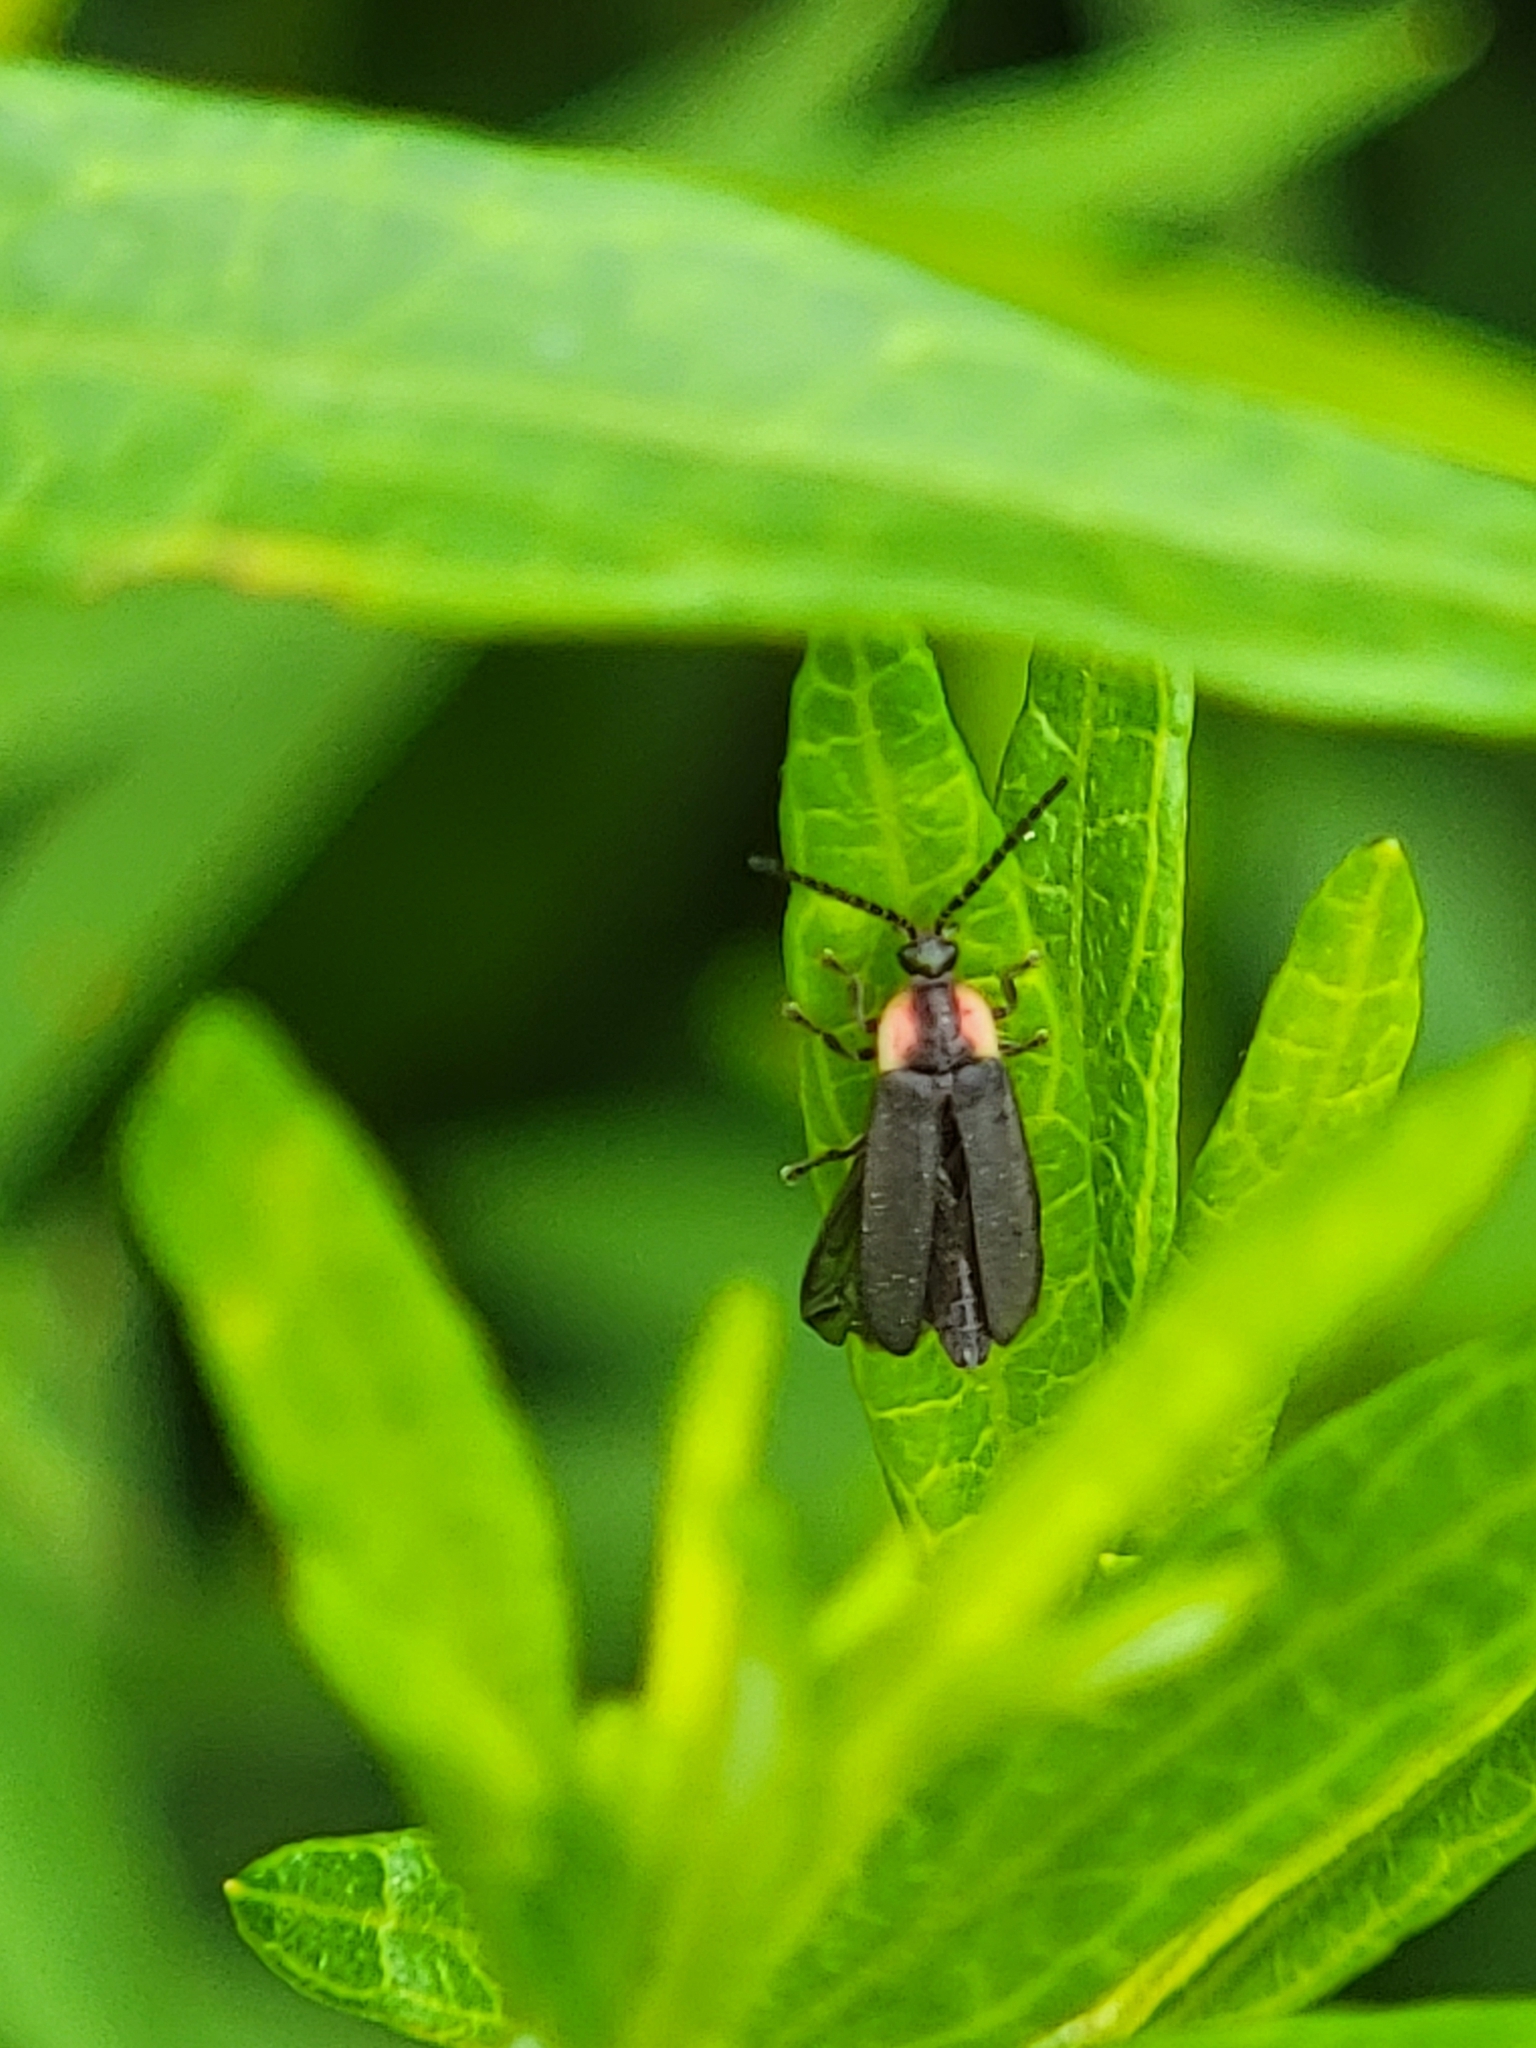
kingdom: Animalia
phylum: Arthropoda
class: Insecta
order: Coleoptera
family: Lampyridae
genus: Lucidota
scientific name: Lucidota atra
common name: Black firefly
